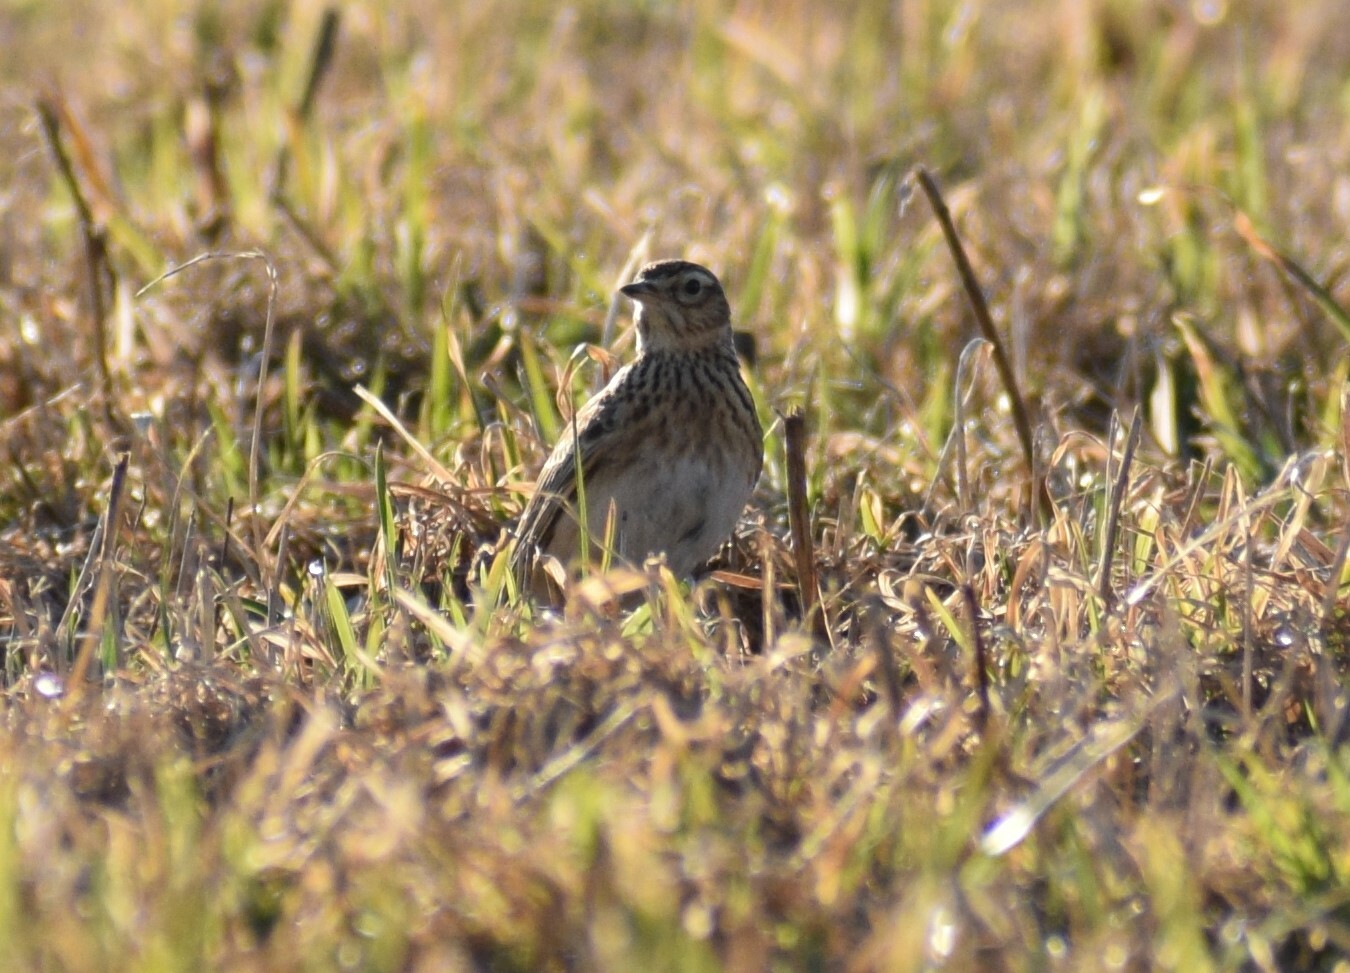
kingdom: Animalia
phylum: Chordata
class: Aves
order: Passeriformes
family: Alaudidae
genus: Alauda
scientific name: Alauda arvensis
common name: Eurasian skylark
